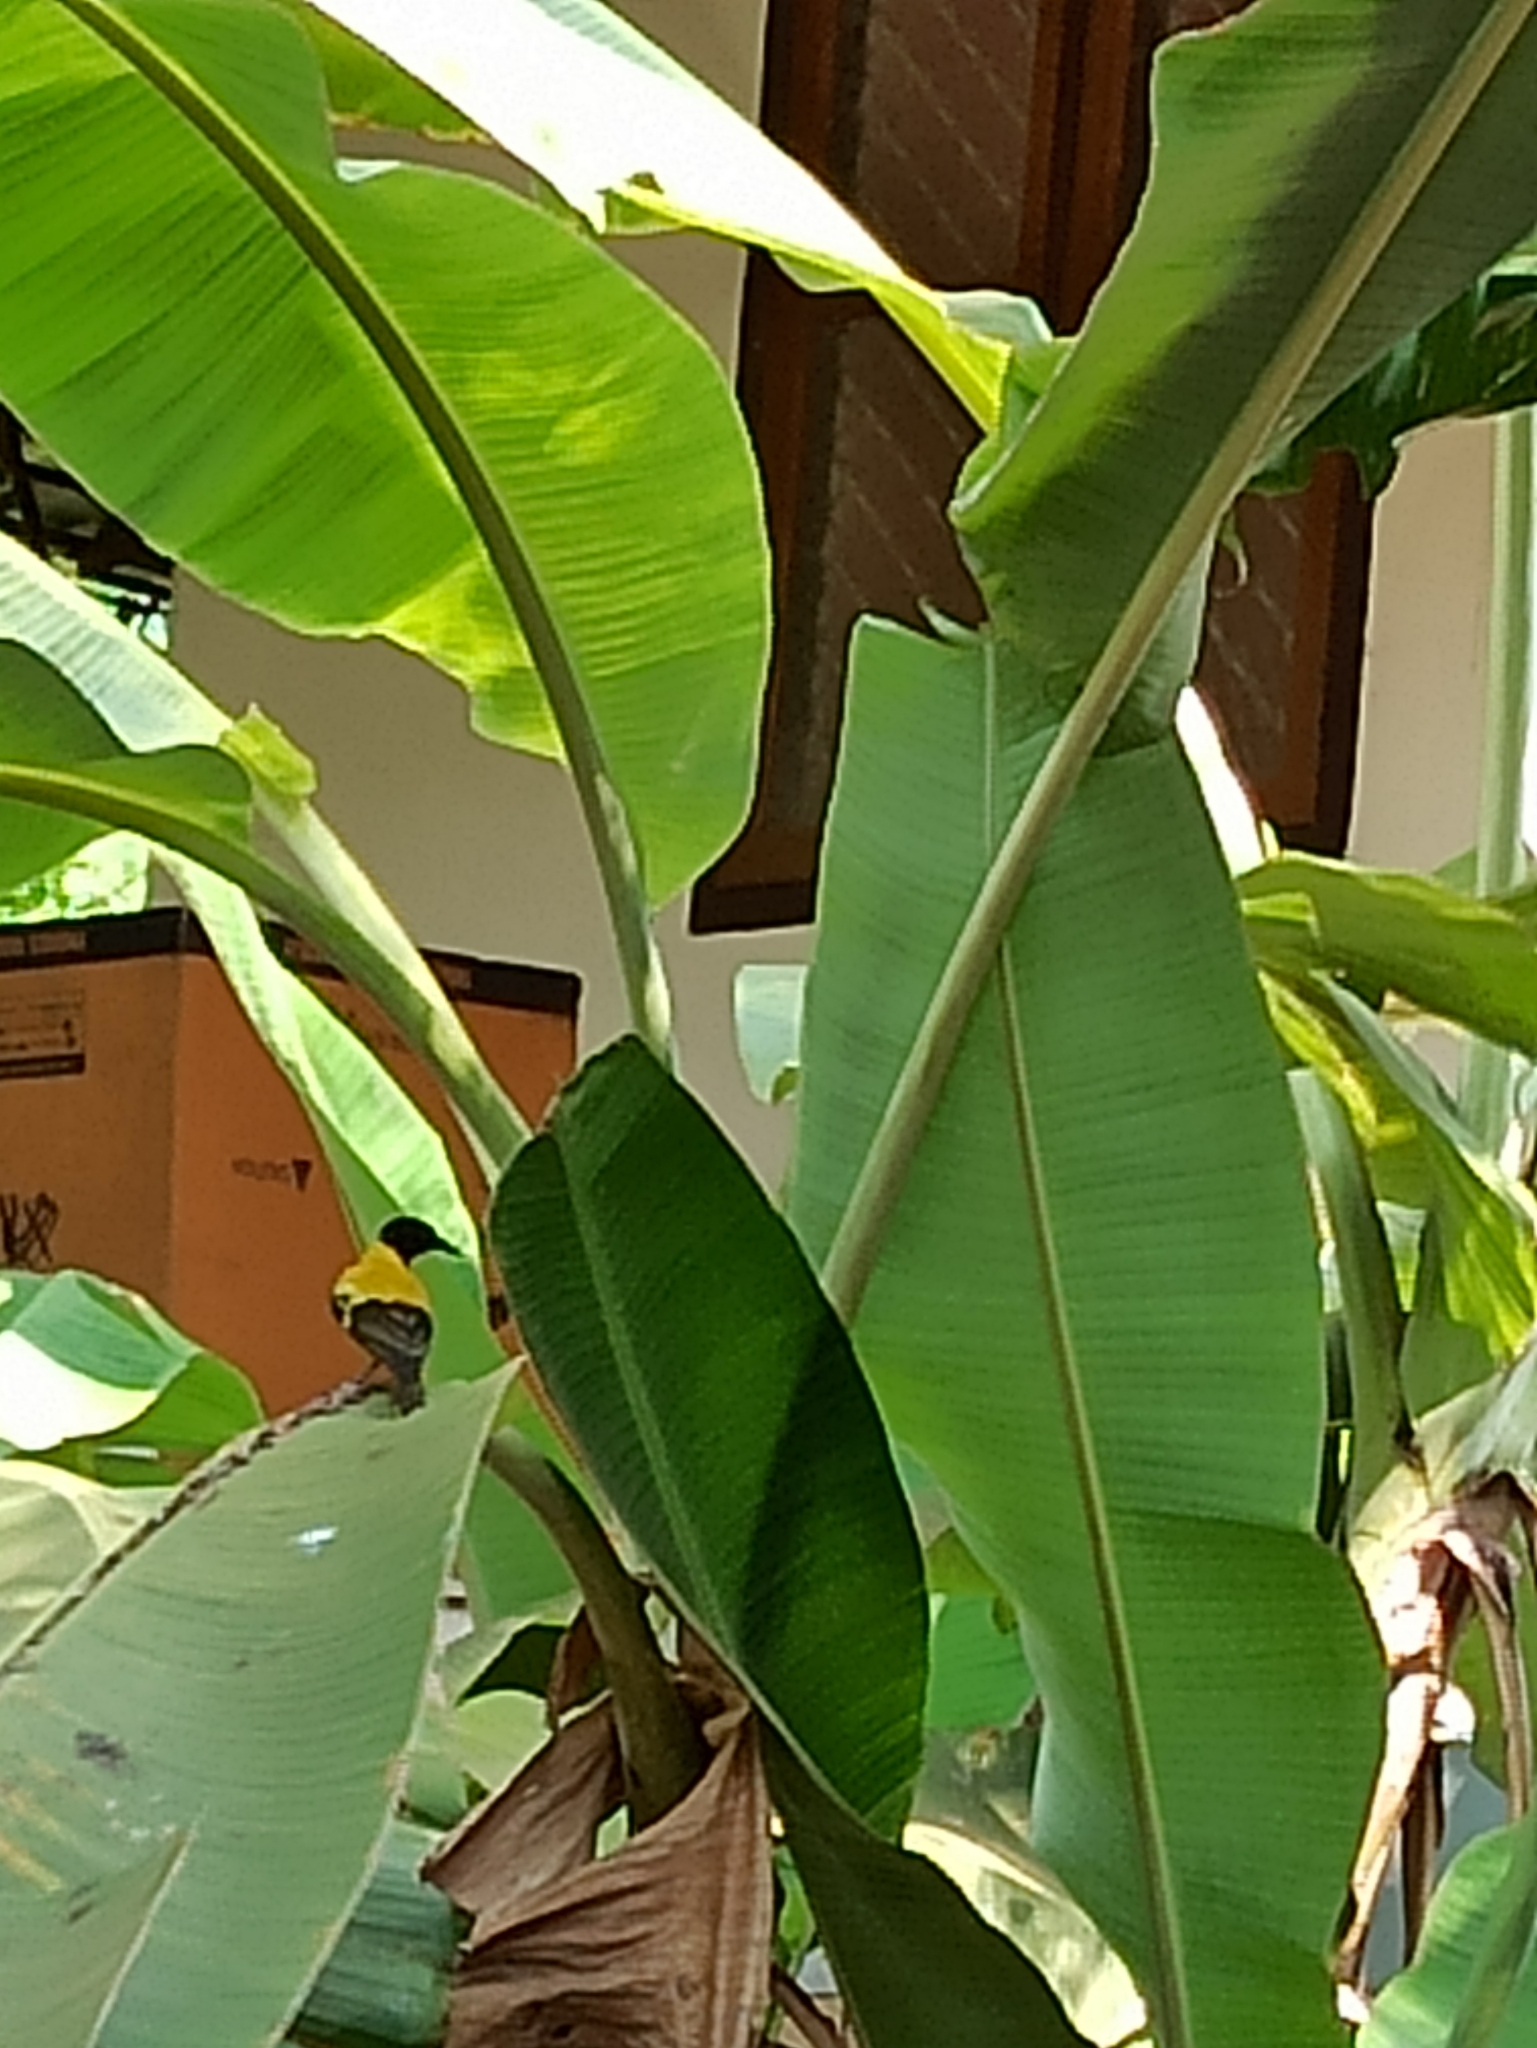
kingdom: Animalia
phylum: Chordata
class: Aves
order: Passeriformes
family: Oriolidae
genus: Oriolus
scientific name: Oriolus xanthornus
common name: Black-hooded oriole
